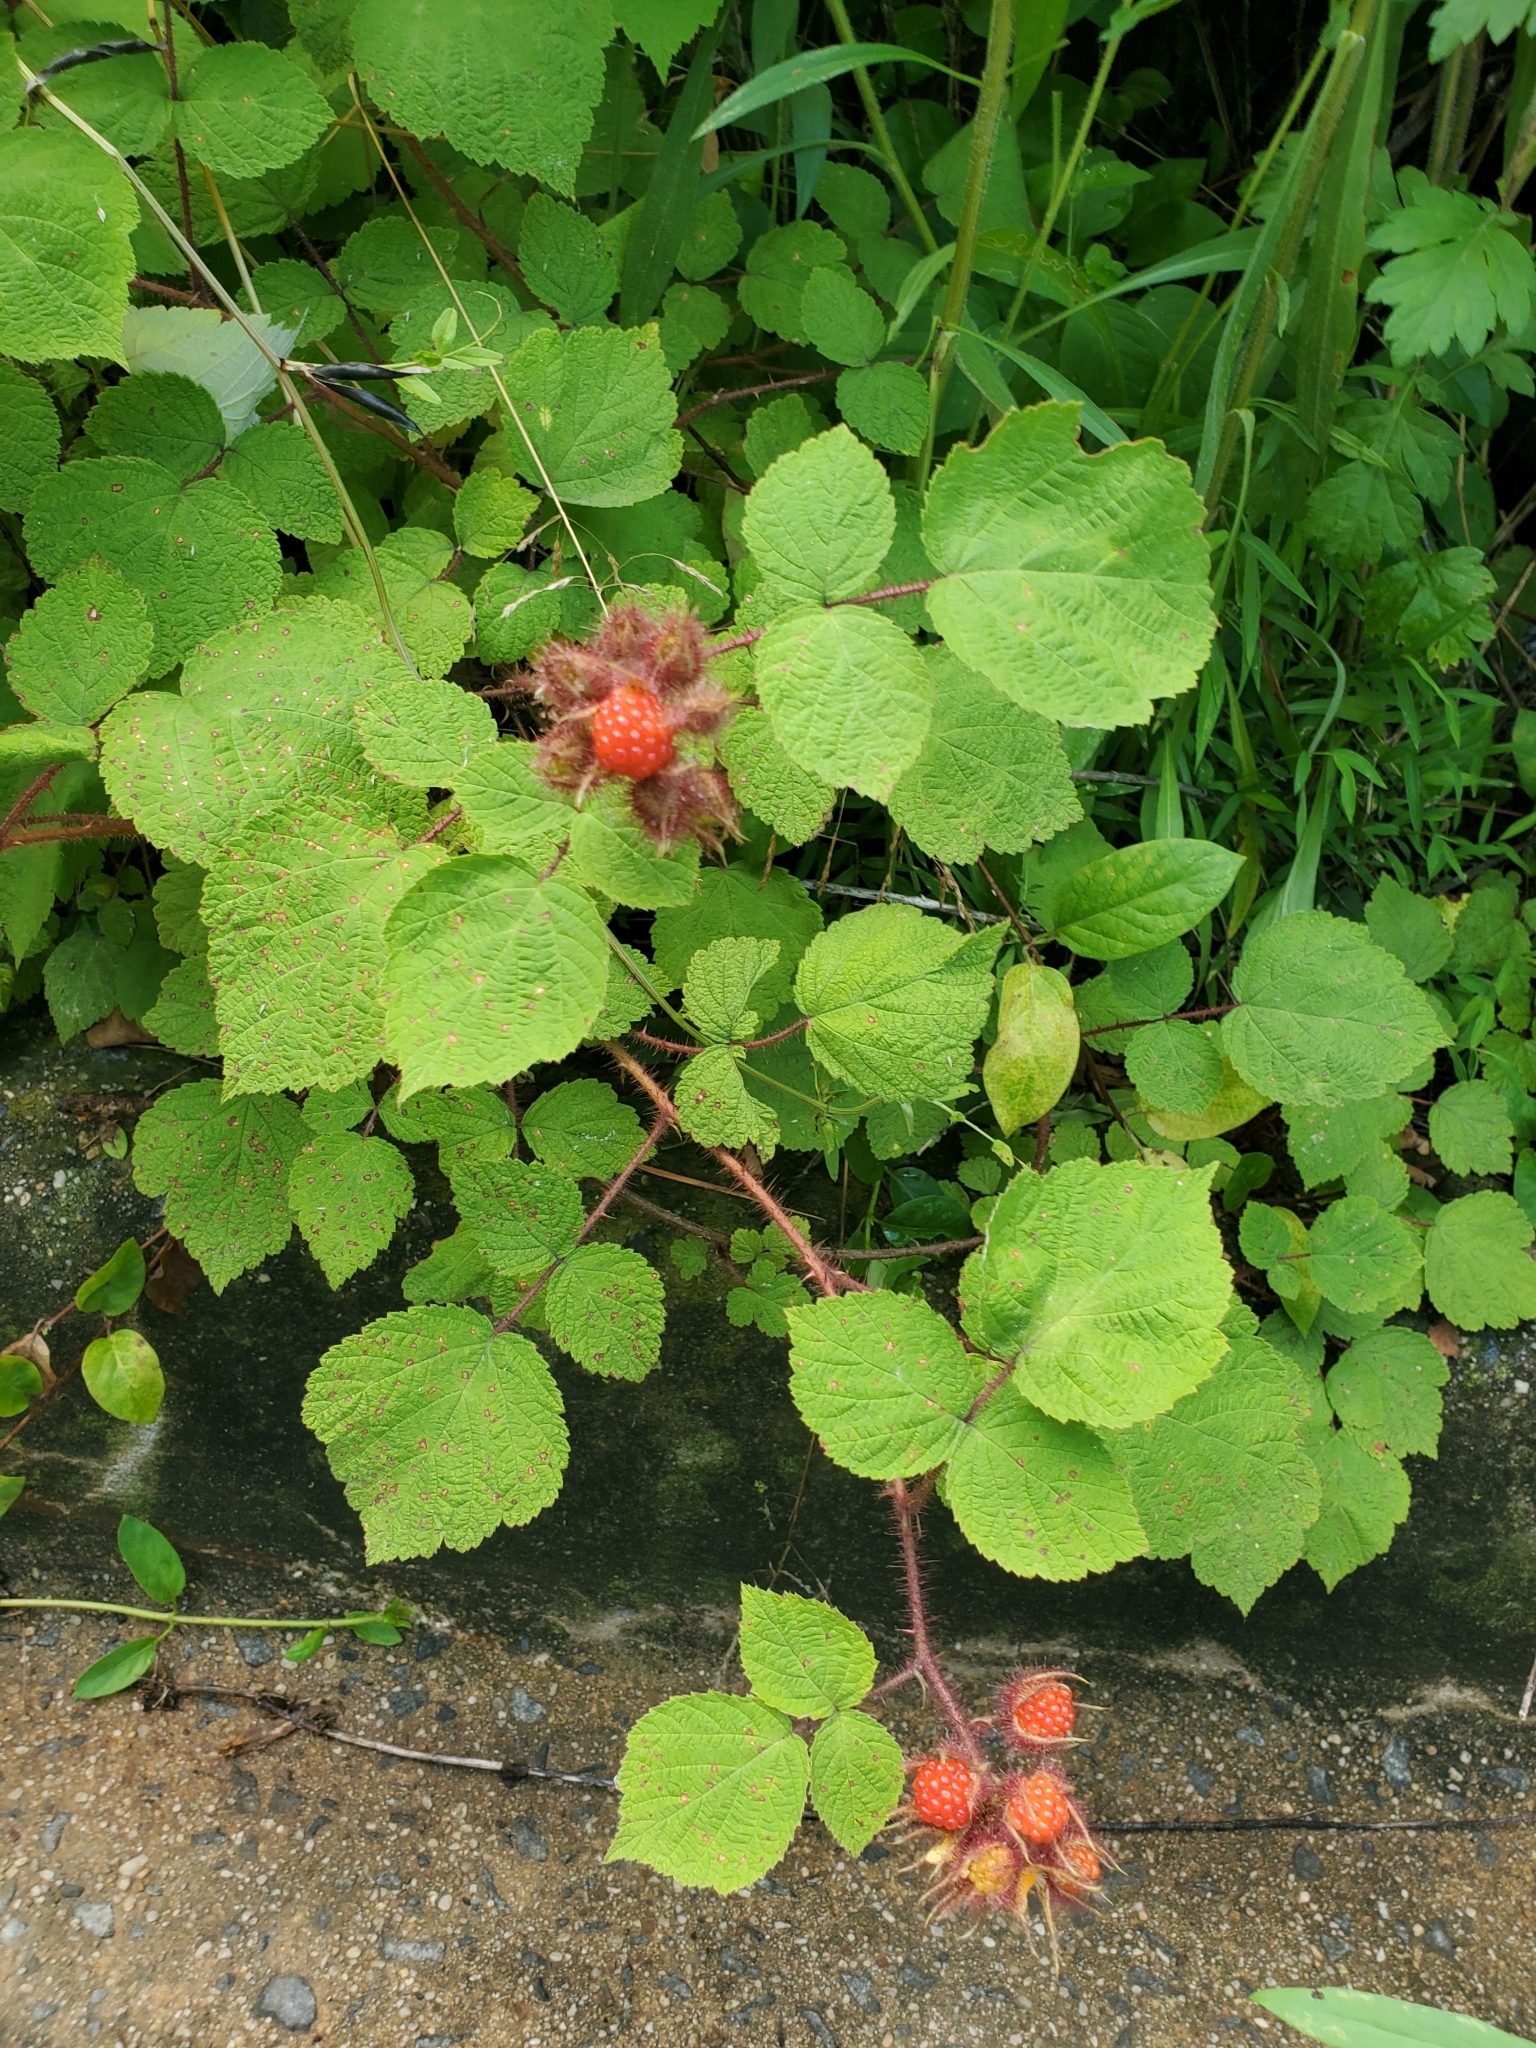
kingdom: Plantae
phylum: Tracheophyta
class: Magnoliopsida
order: Rosales
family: Rosaceae
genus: Rubus
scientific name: Rubus phoenicolasius
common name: Japanese wineberry
